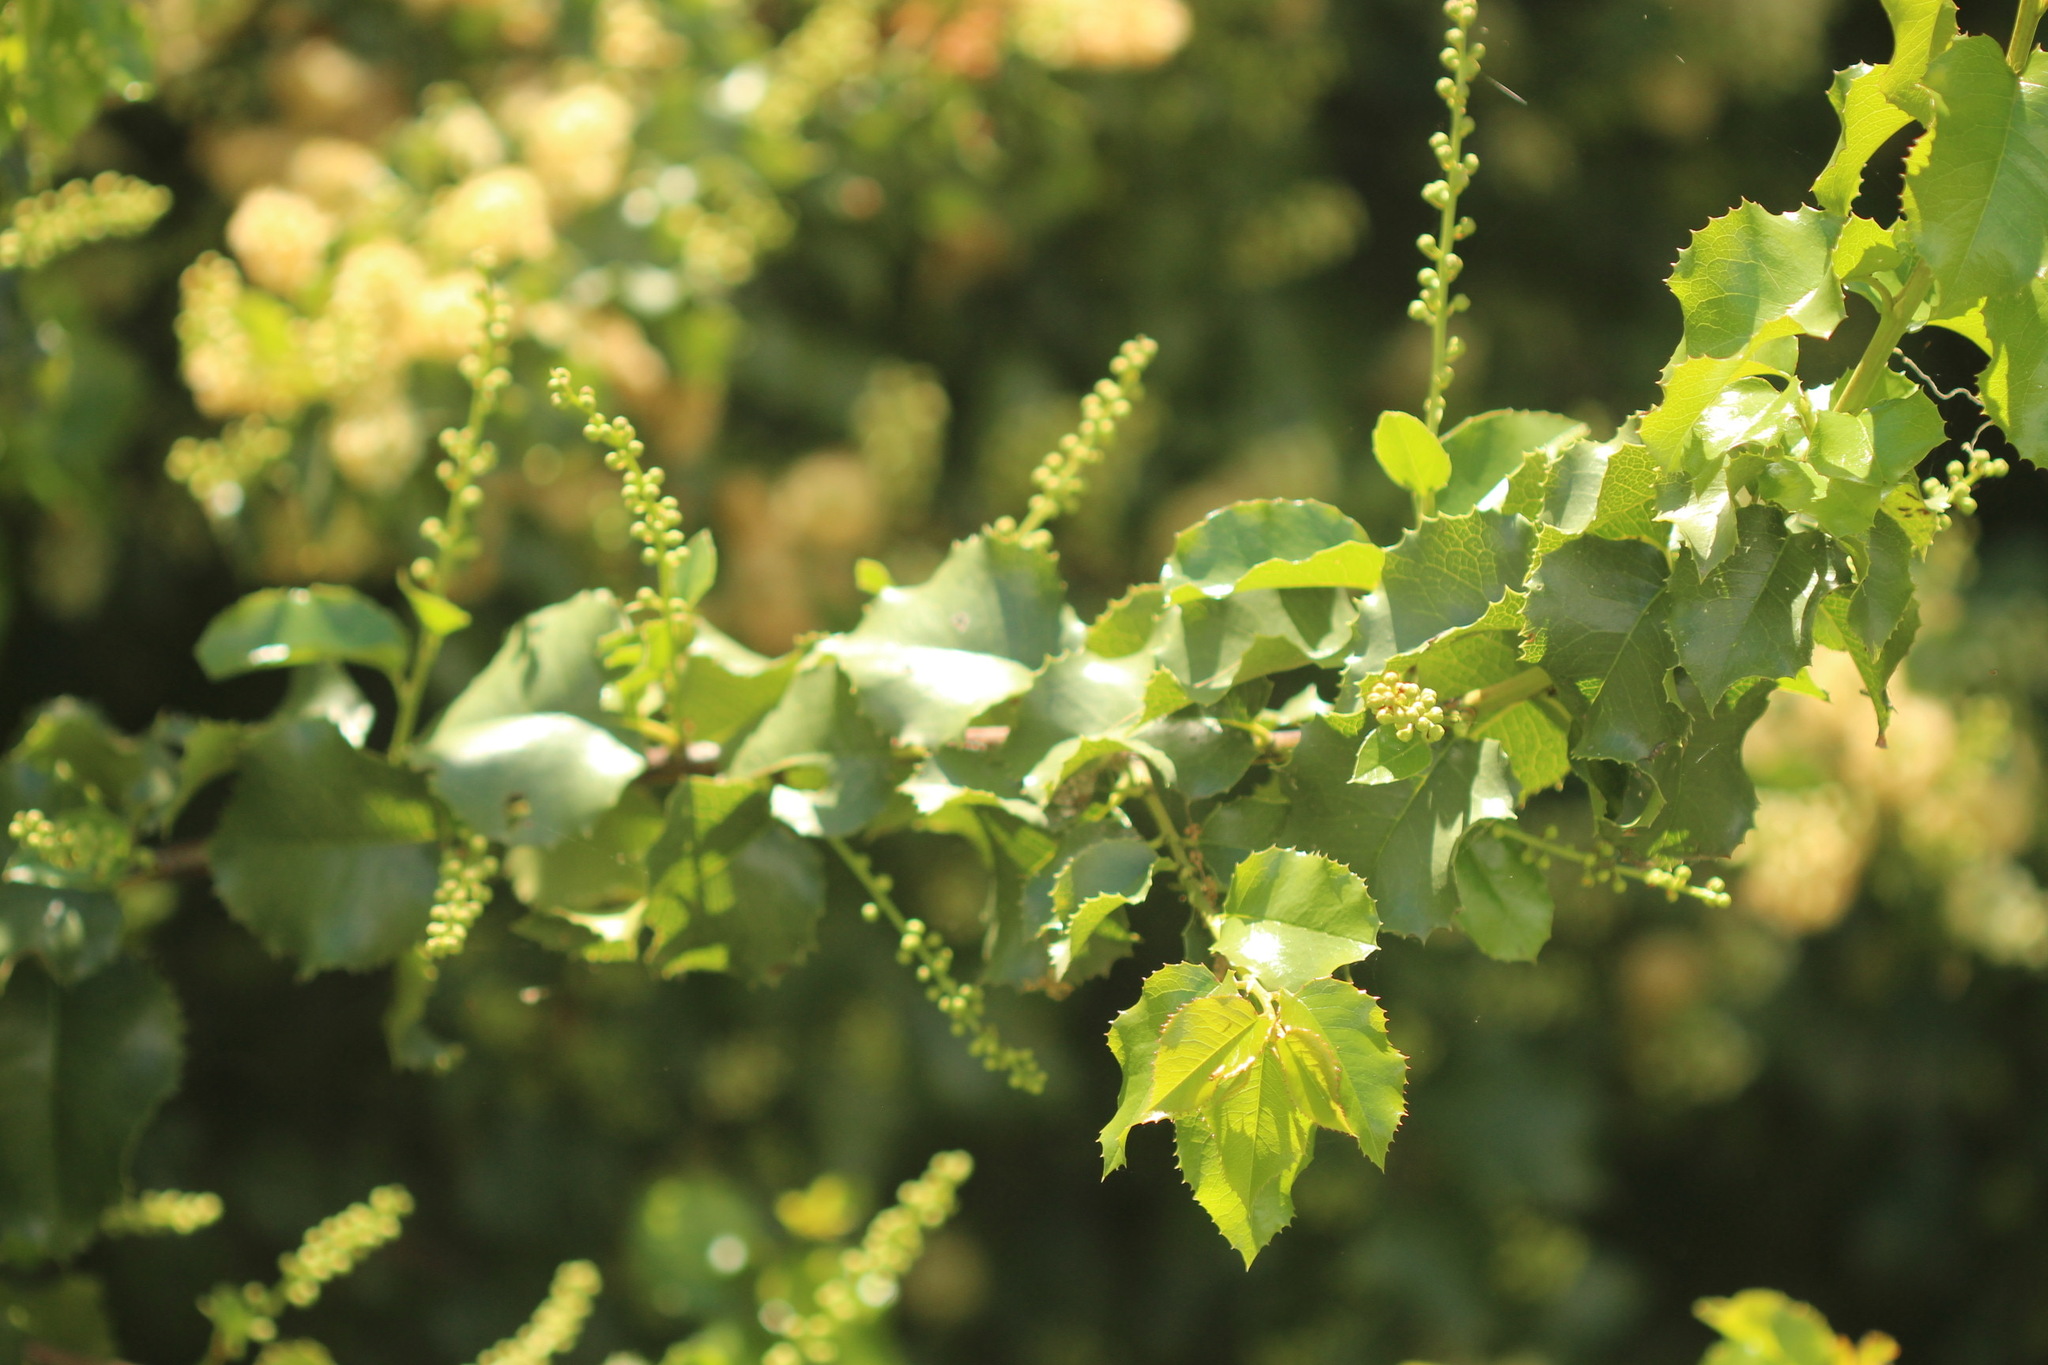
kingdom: Plantae
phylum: Tracheophyta
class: Magnoliopsida
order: Rosales
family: Rosaceae
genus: Prunus
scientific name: Prunus ilicifolia
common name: Hollyleaf cherry
